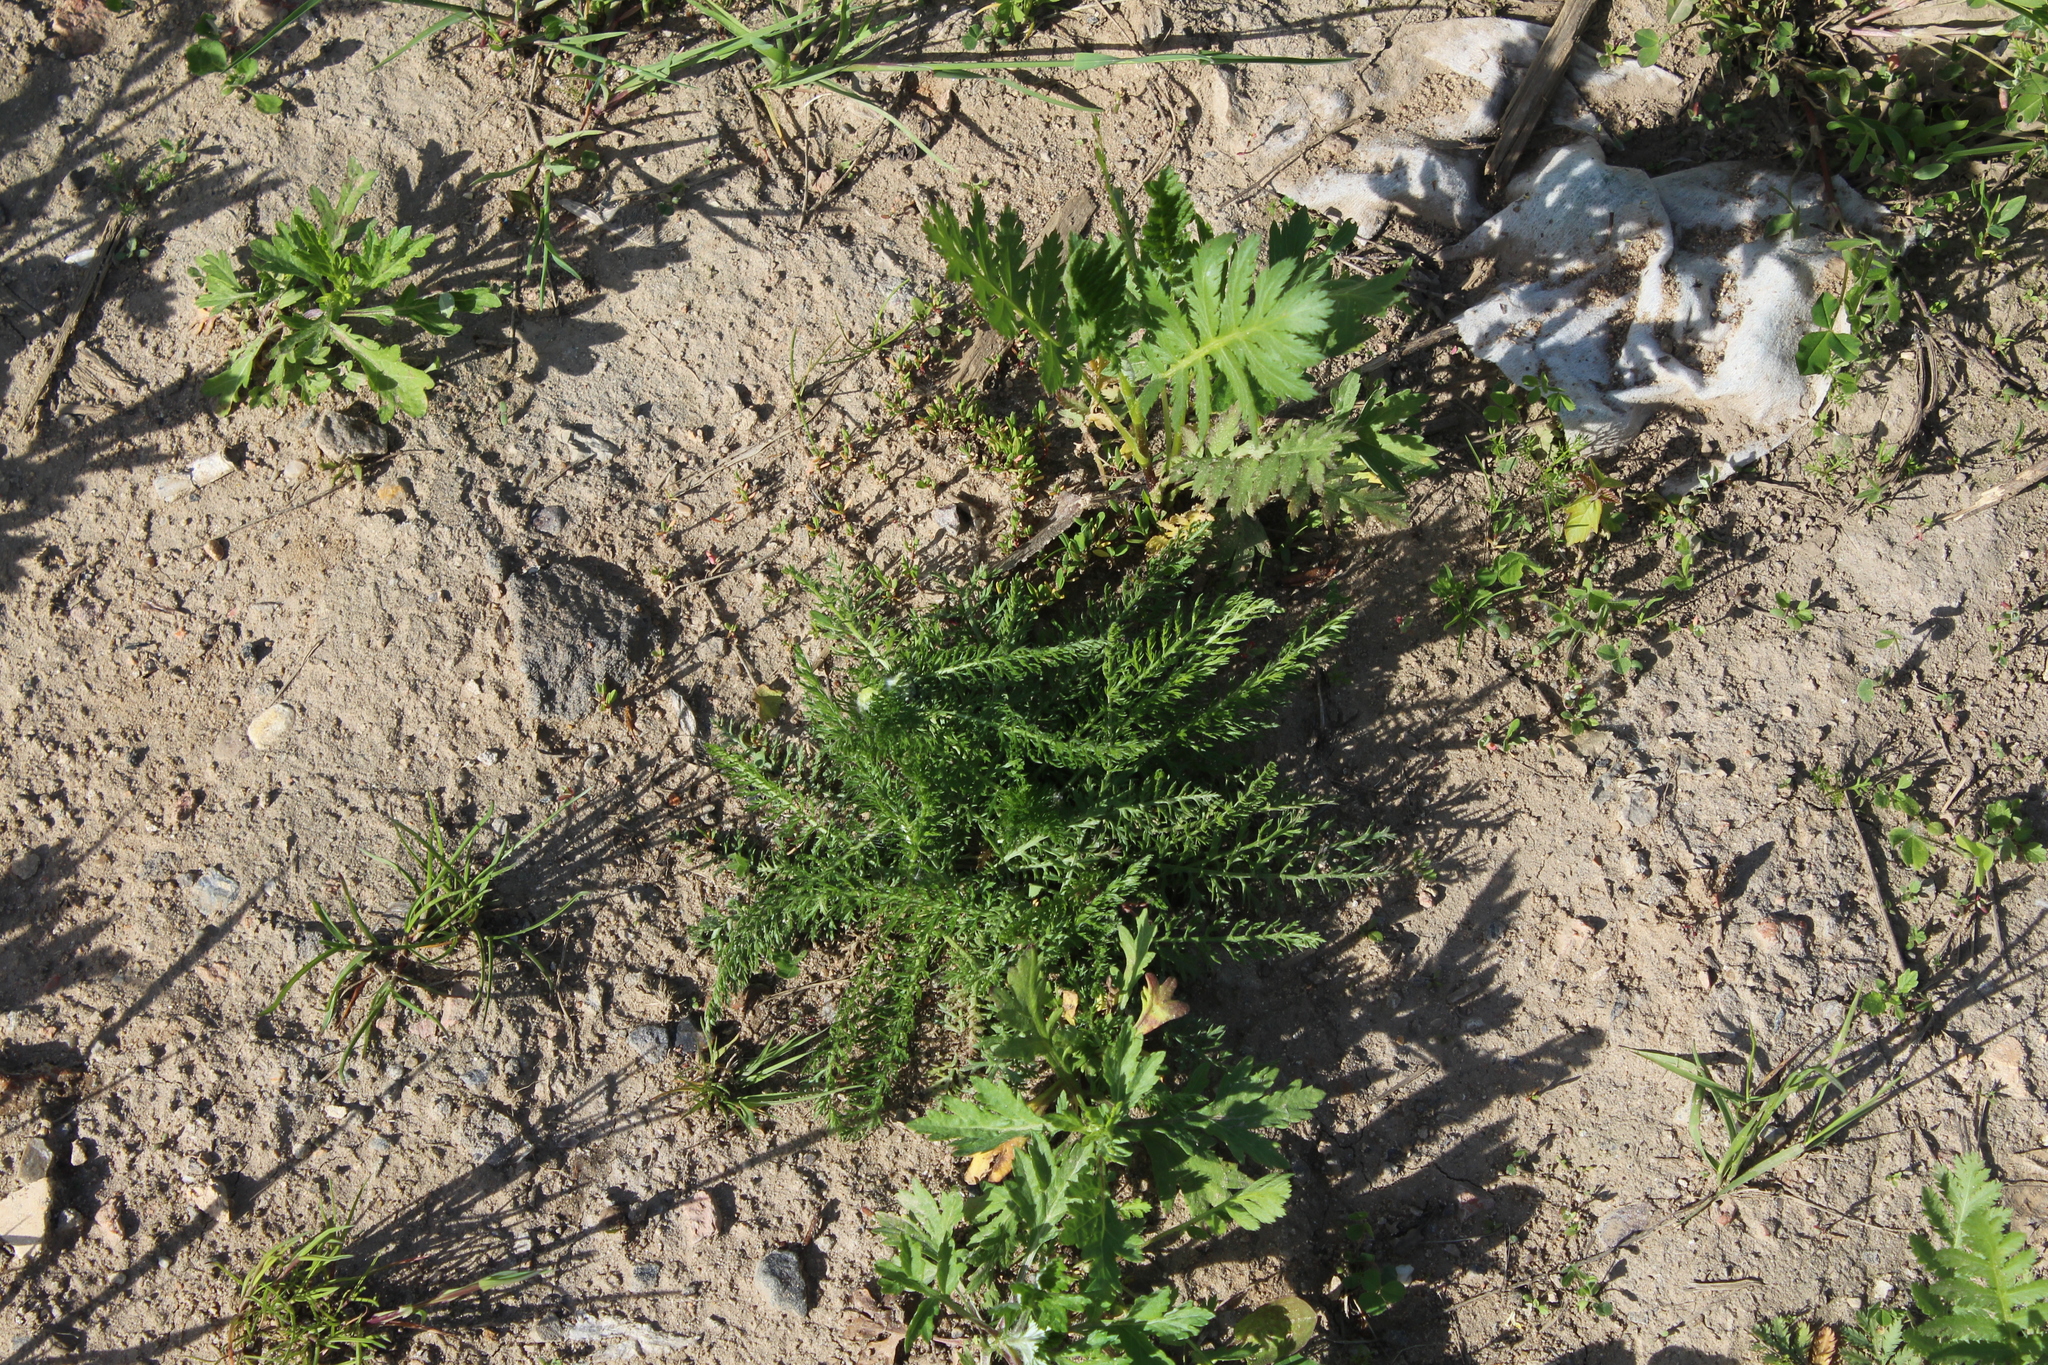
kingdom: Plantae
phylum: Tracheophyta
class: Magnoliopsida
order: Asterales
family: Asteraceae
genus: Achillea
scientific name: Achillea millefolium
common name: Yarrow
